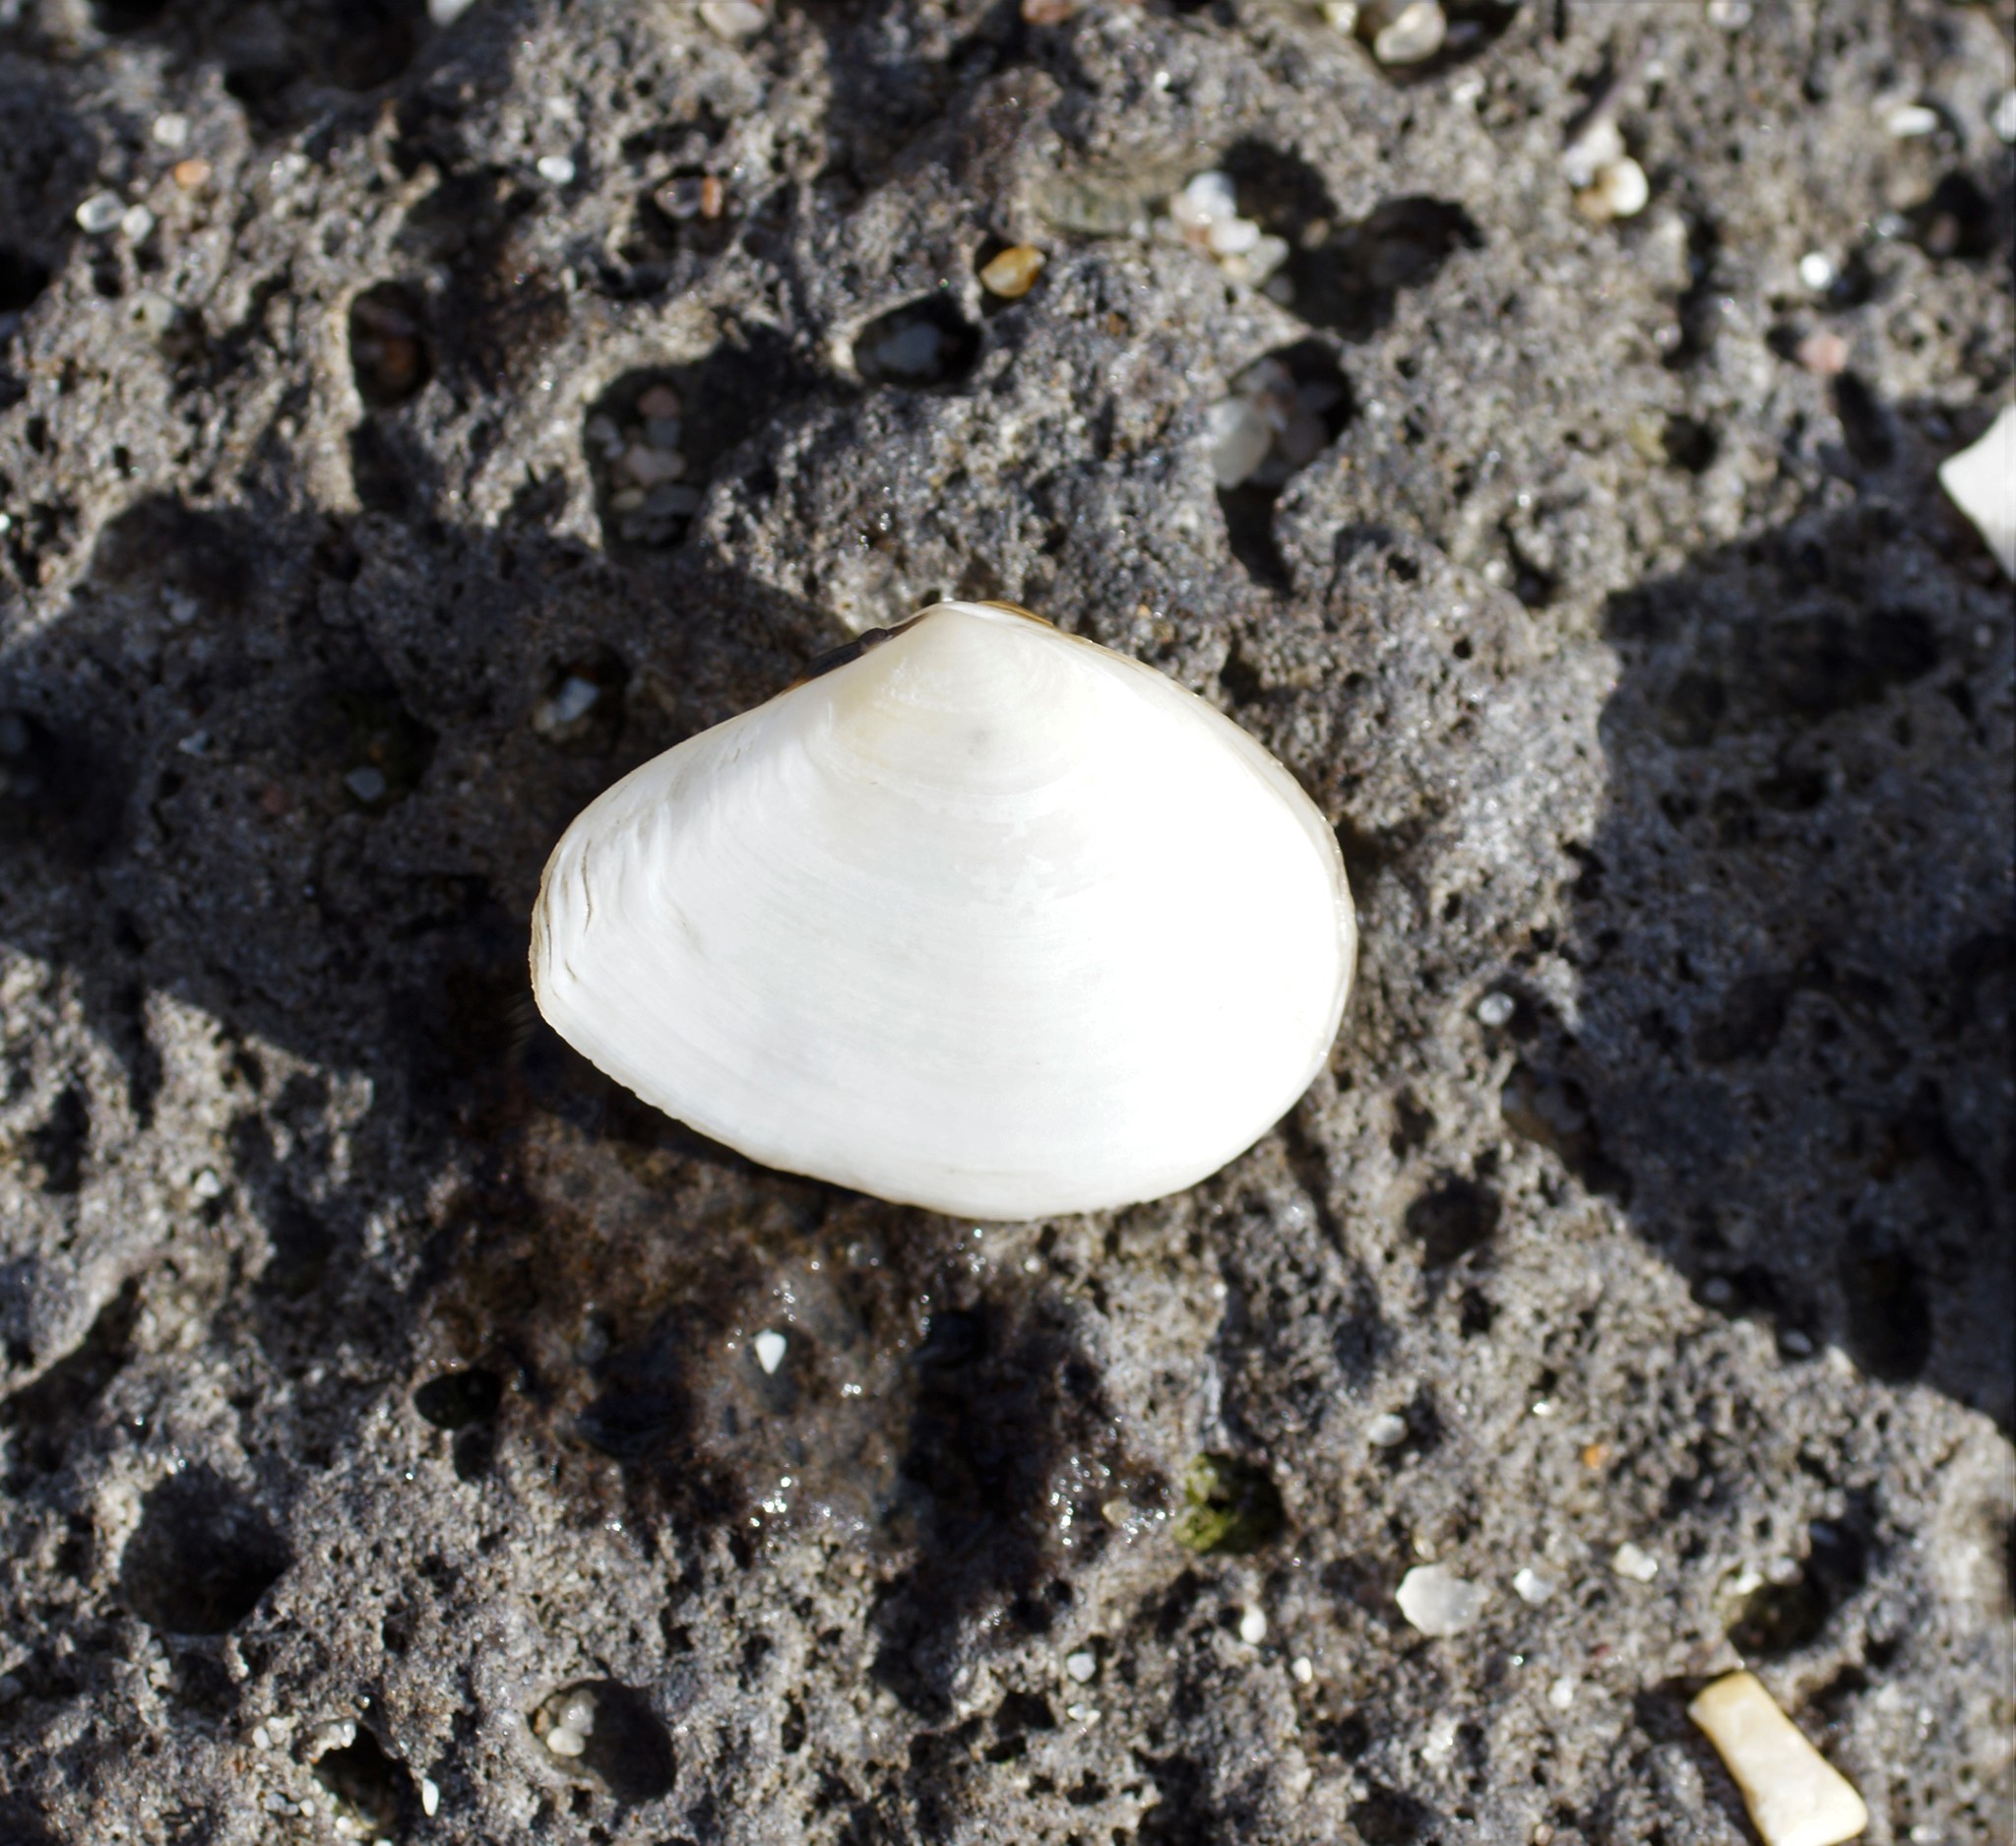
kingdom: Animalia
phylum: Mollusca
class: Bivalvia
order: Cardiida
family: Tellinidae
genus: Macomona
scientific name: Macomona deltoidalis
